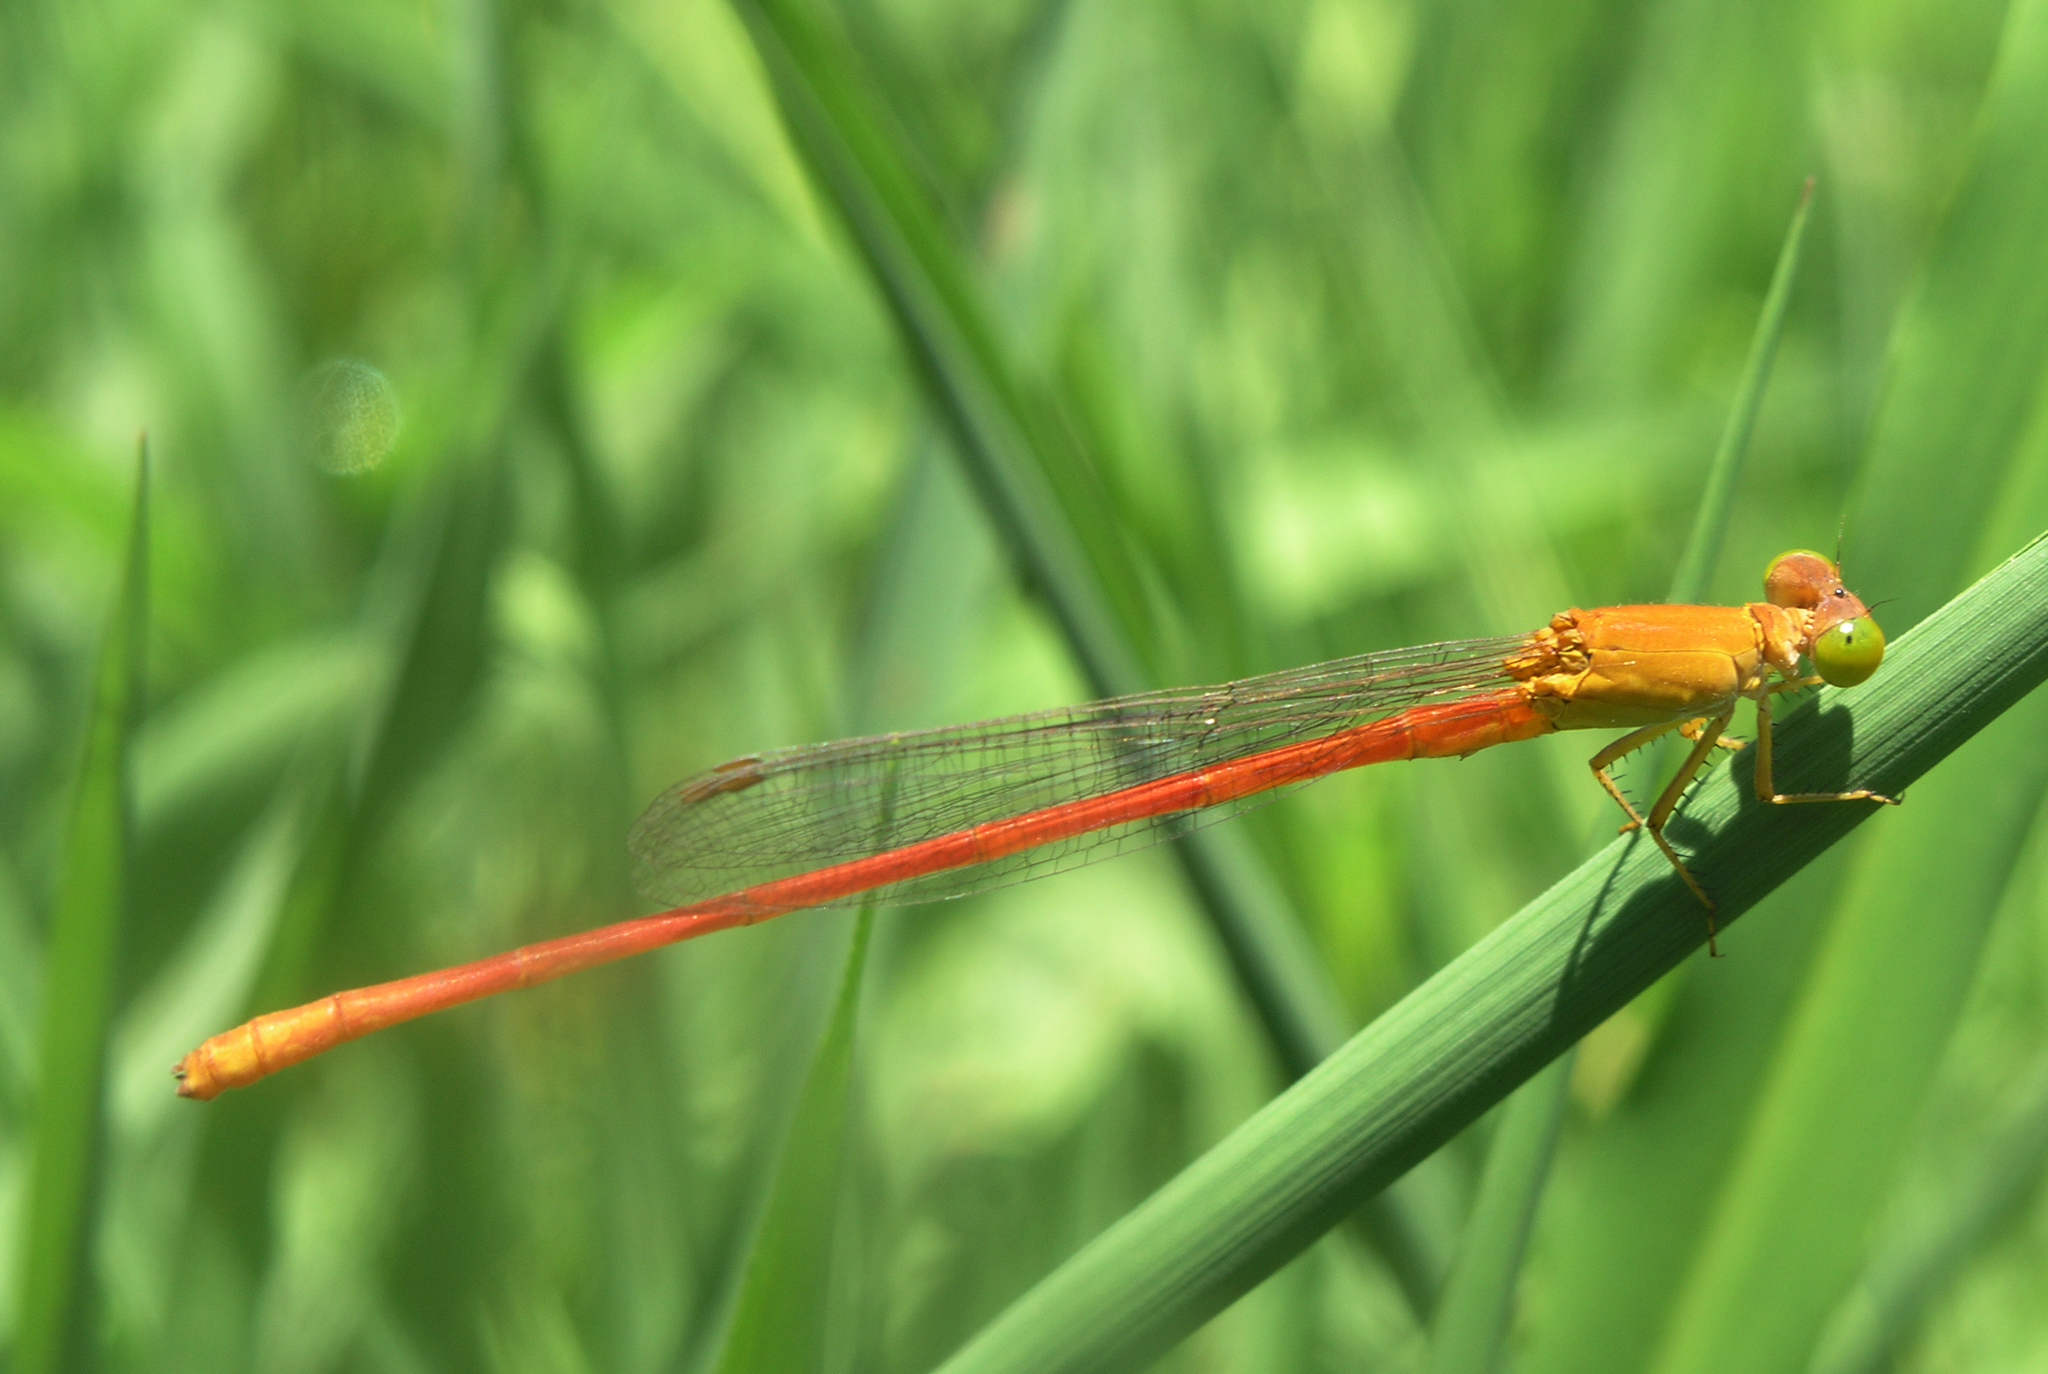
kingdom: Animalia
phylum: Arthropoda
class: Insecta
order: Odonata
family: Coenagrionidae
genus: Ceriagrion
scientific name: Ceriagrion malaisei
